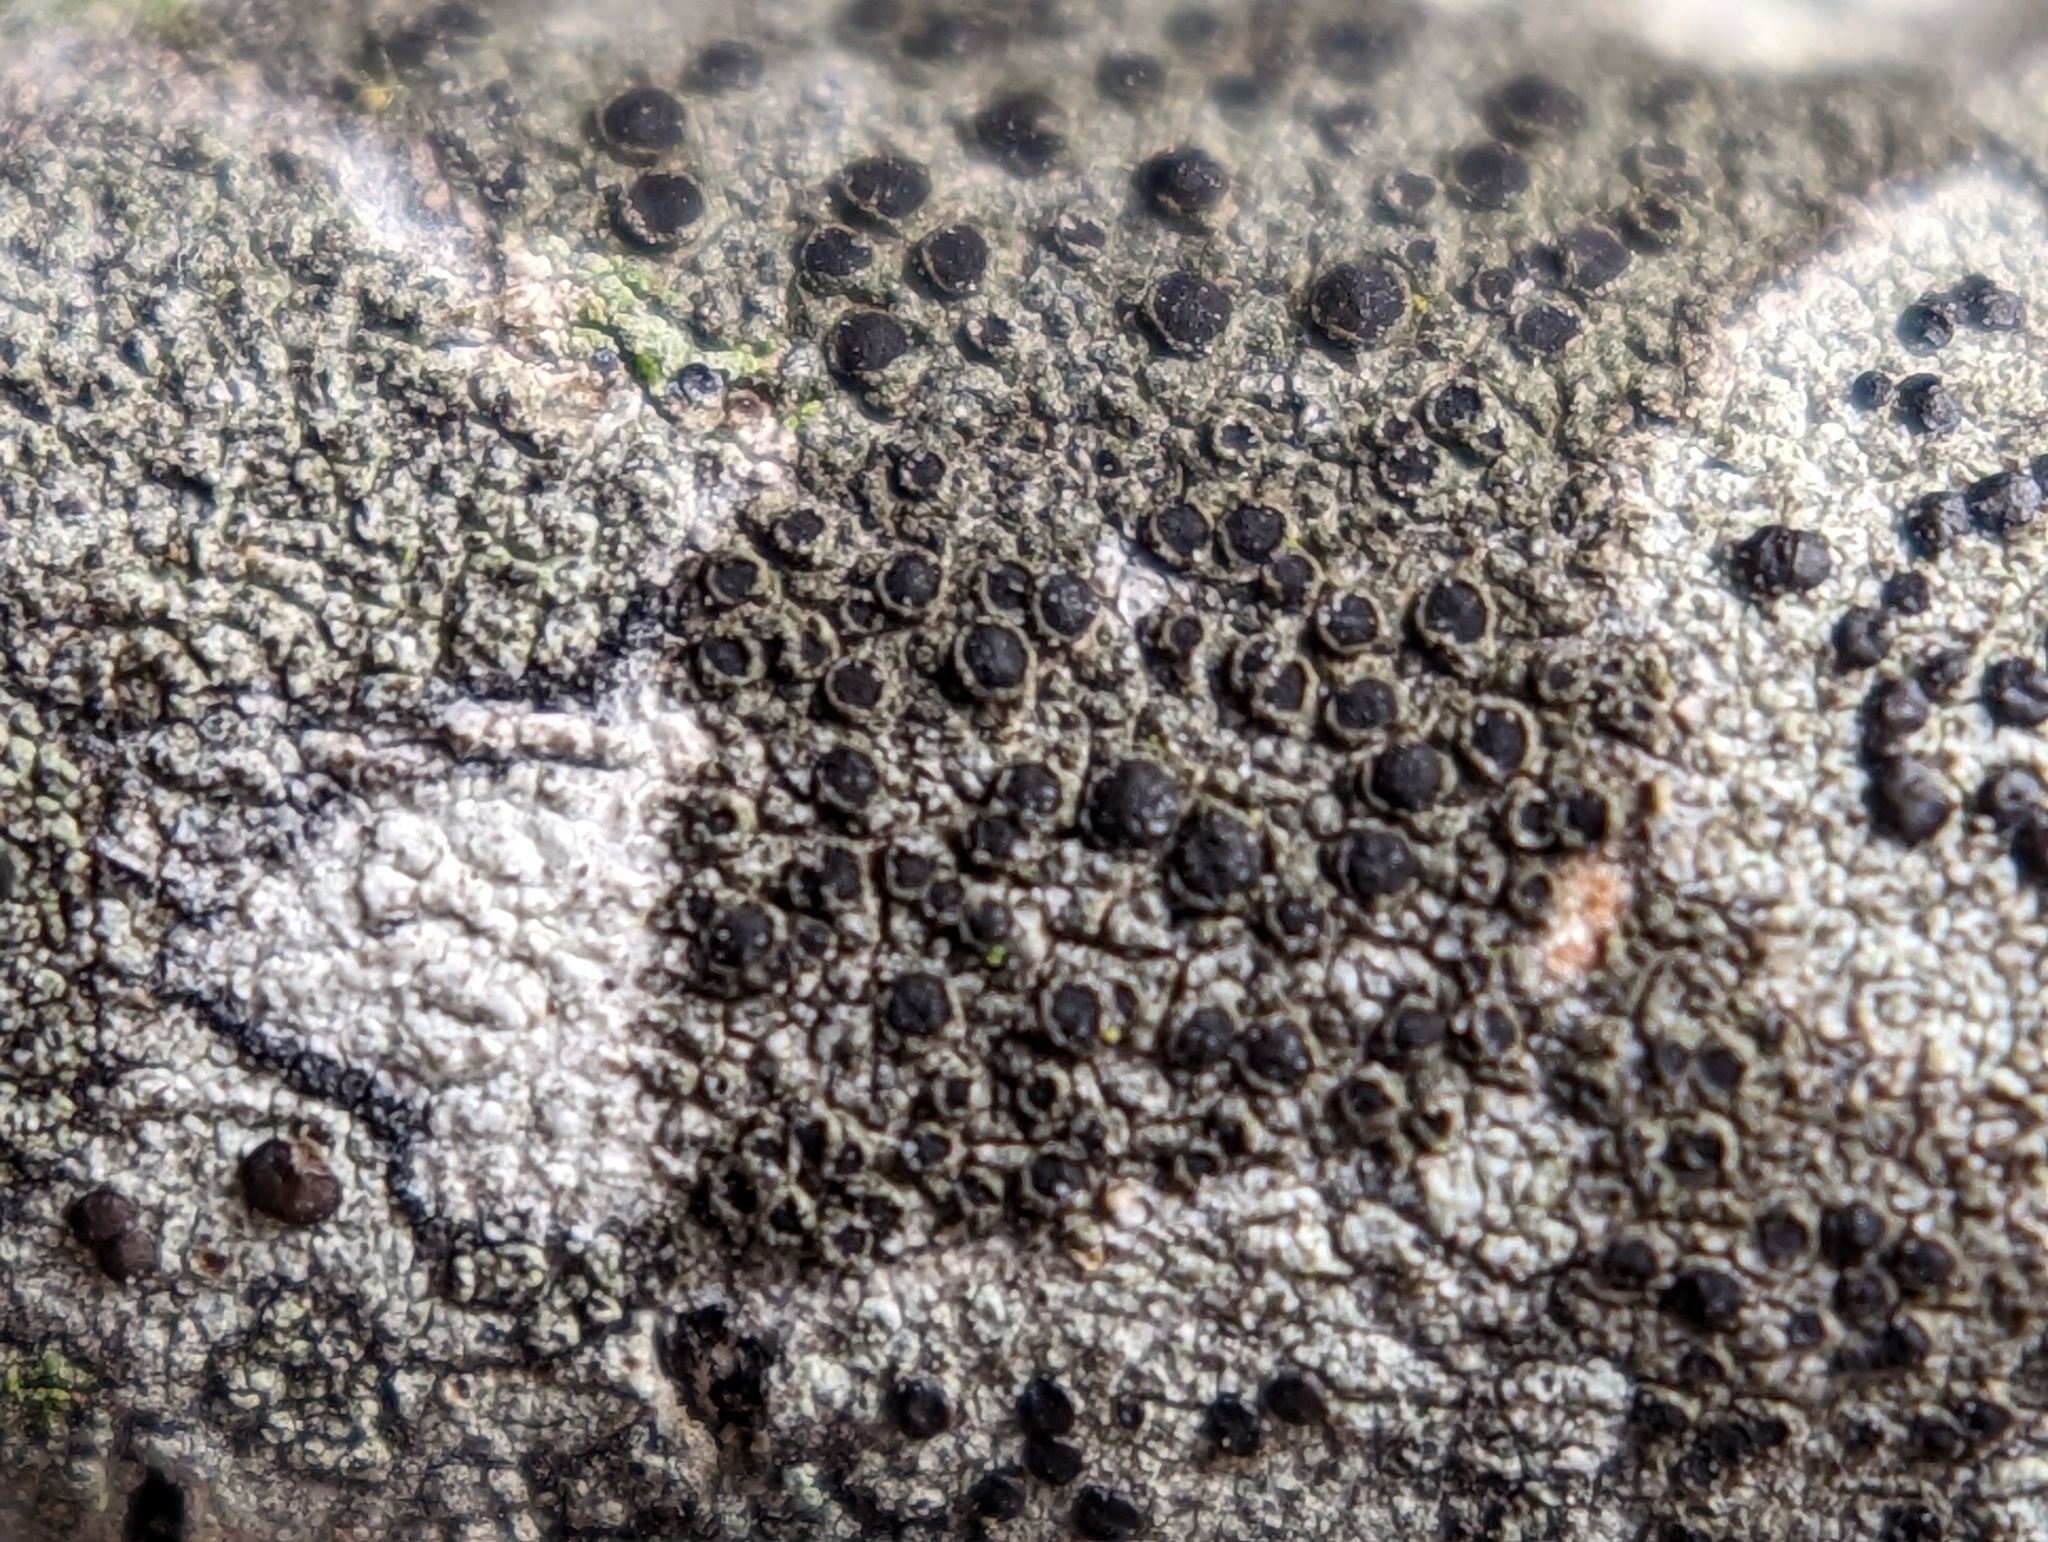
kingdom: Fungi
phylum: Ascomycota
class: Lecanoromycetes
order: Caliciales
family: Caliciaceae
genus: Buellia
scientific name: Buellia dakotensis
